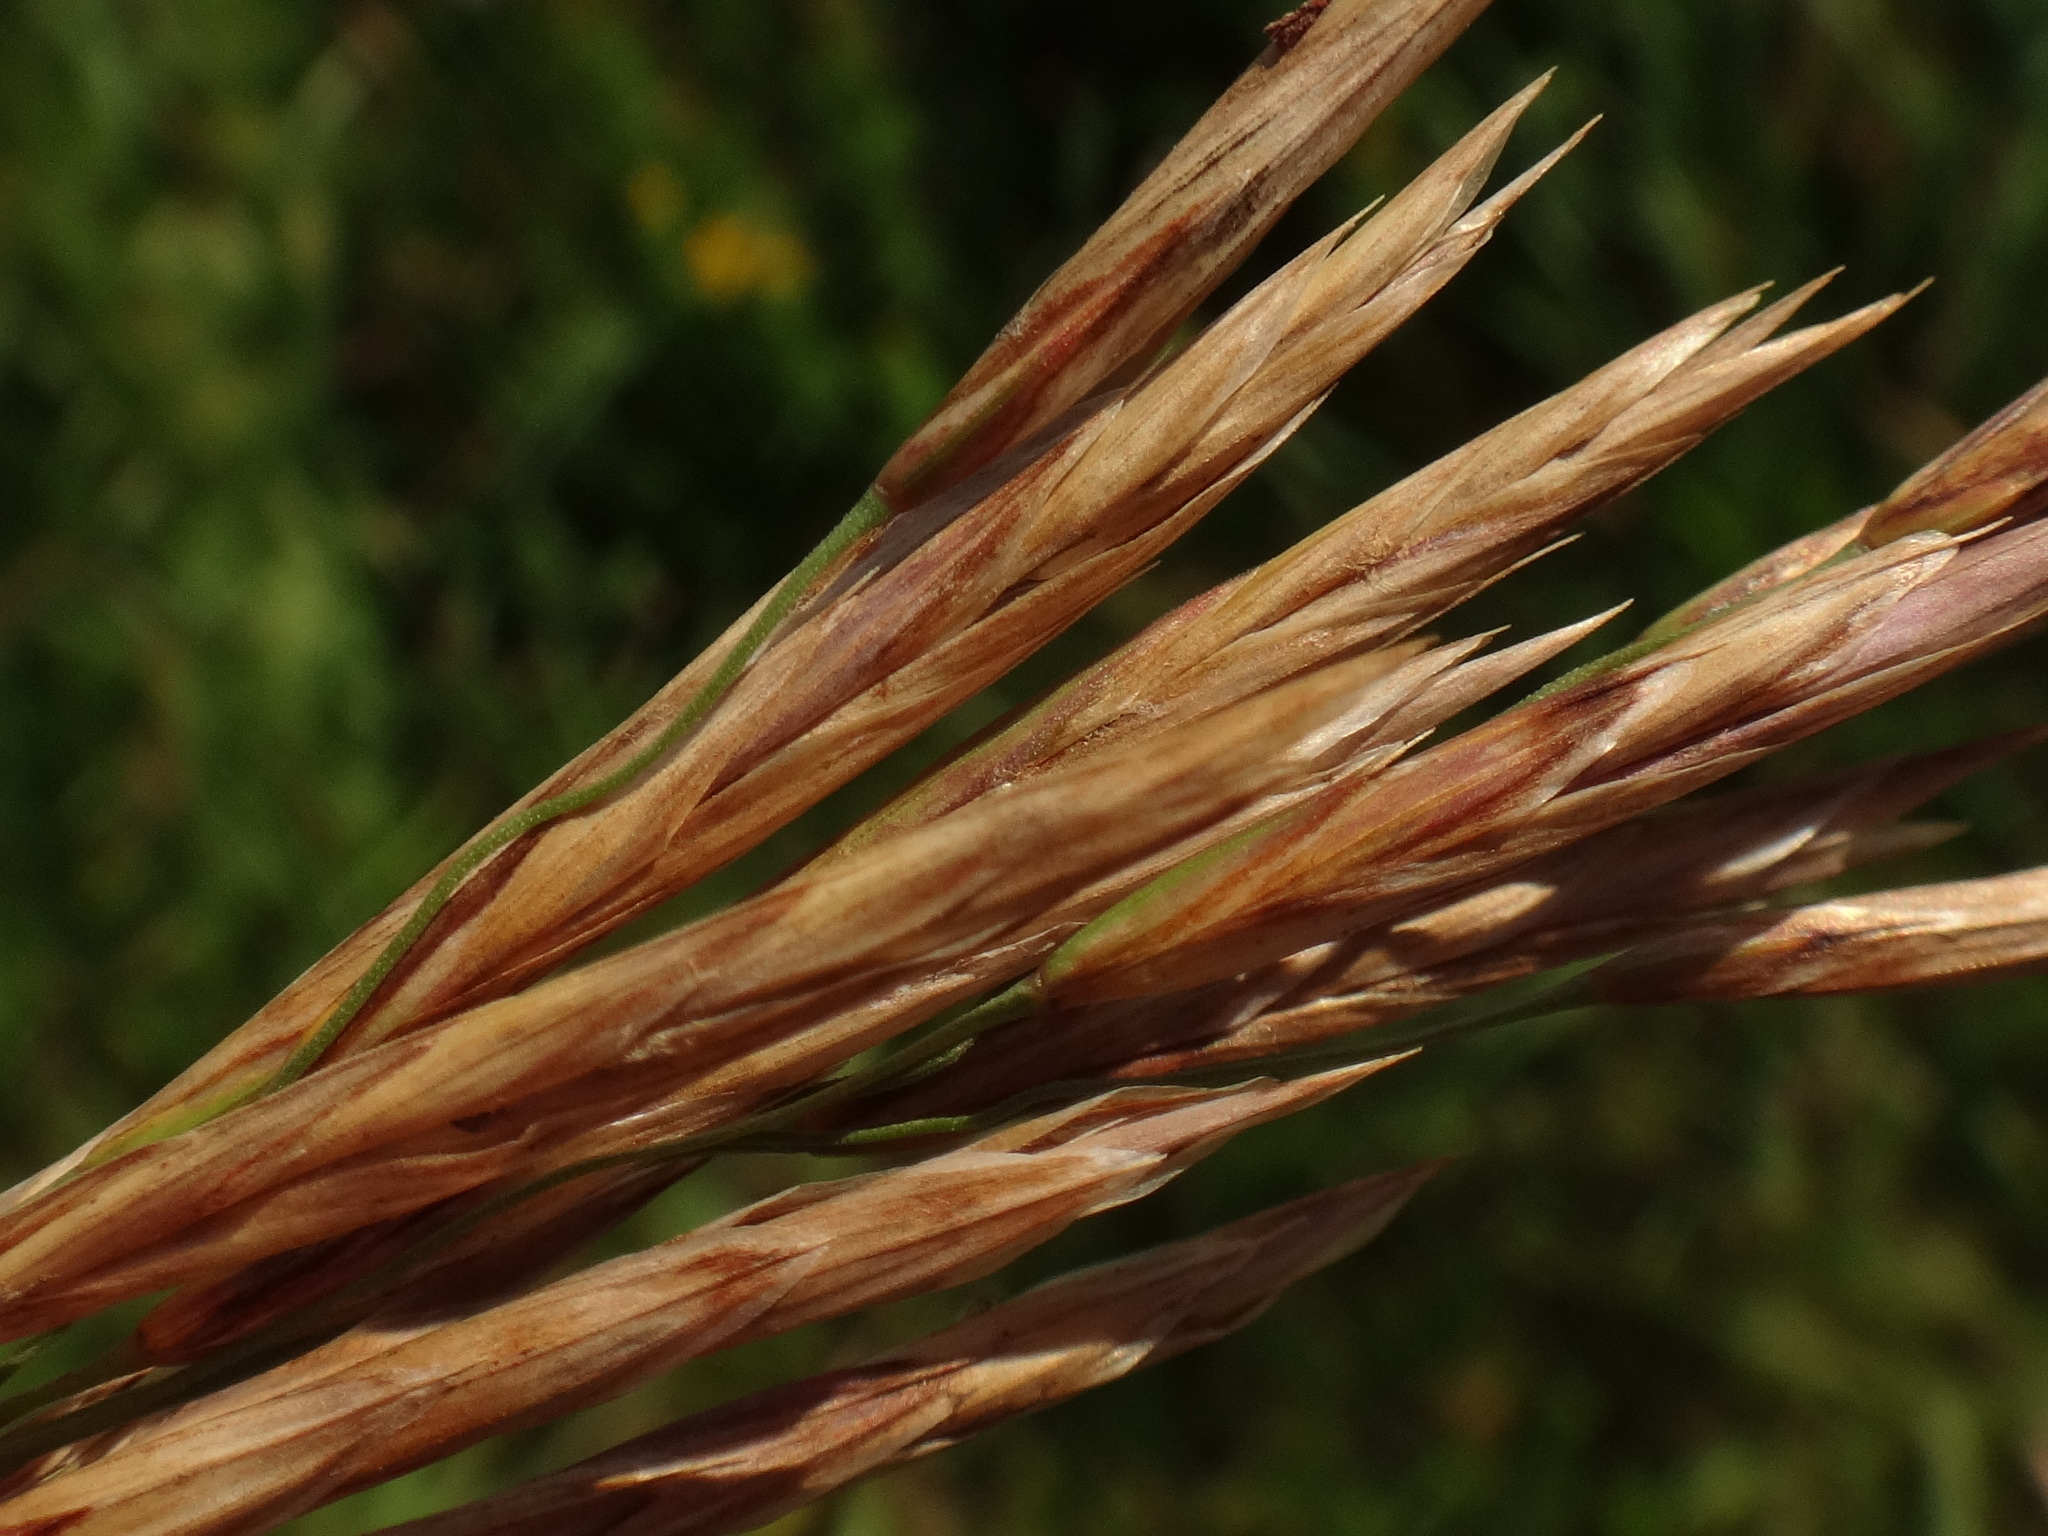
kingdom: Plantae
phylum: Tracheophyta
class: Liliopsida
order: Poales
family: Poaceae
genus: Bromus
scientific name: Bromus inermis
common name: Smooth brome
